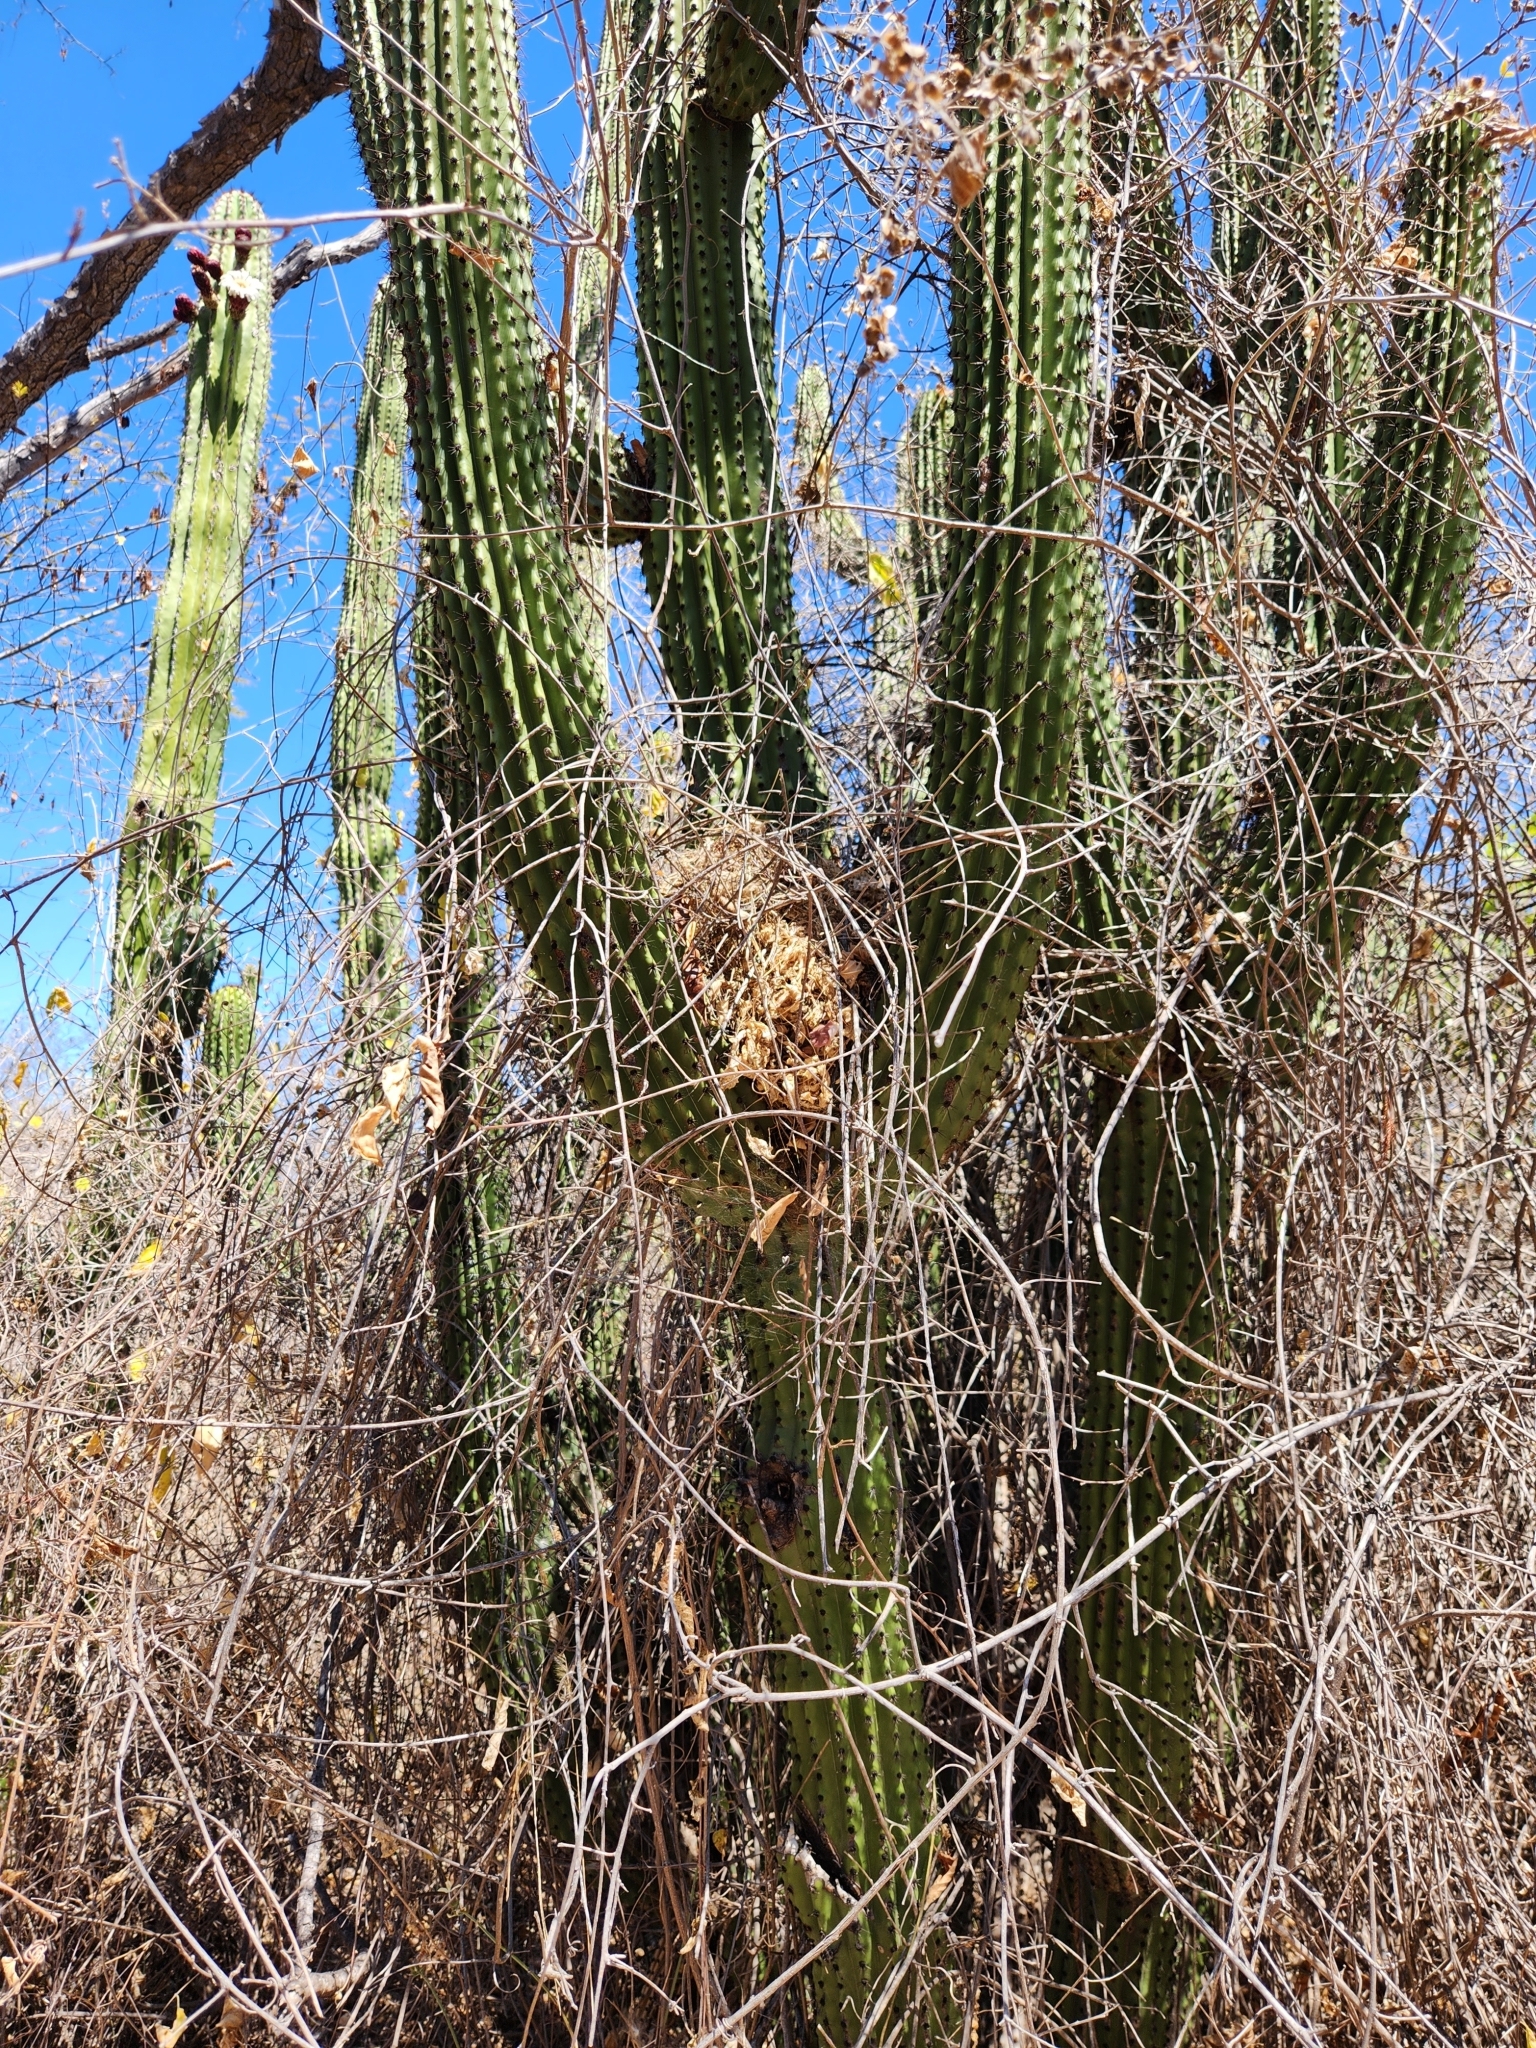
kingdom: Animalia
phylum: Chordata
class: Aves
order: Passeriformes
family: Troglodytidae
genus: Campylorhynchus
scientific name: Campylorhynchus brunneicapillus
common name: Cactus wren
